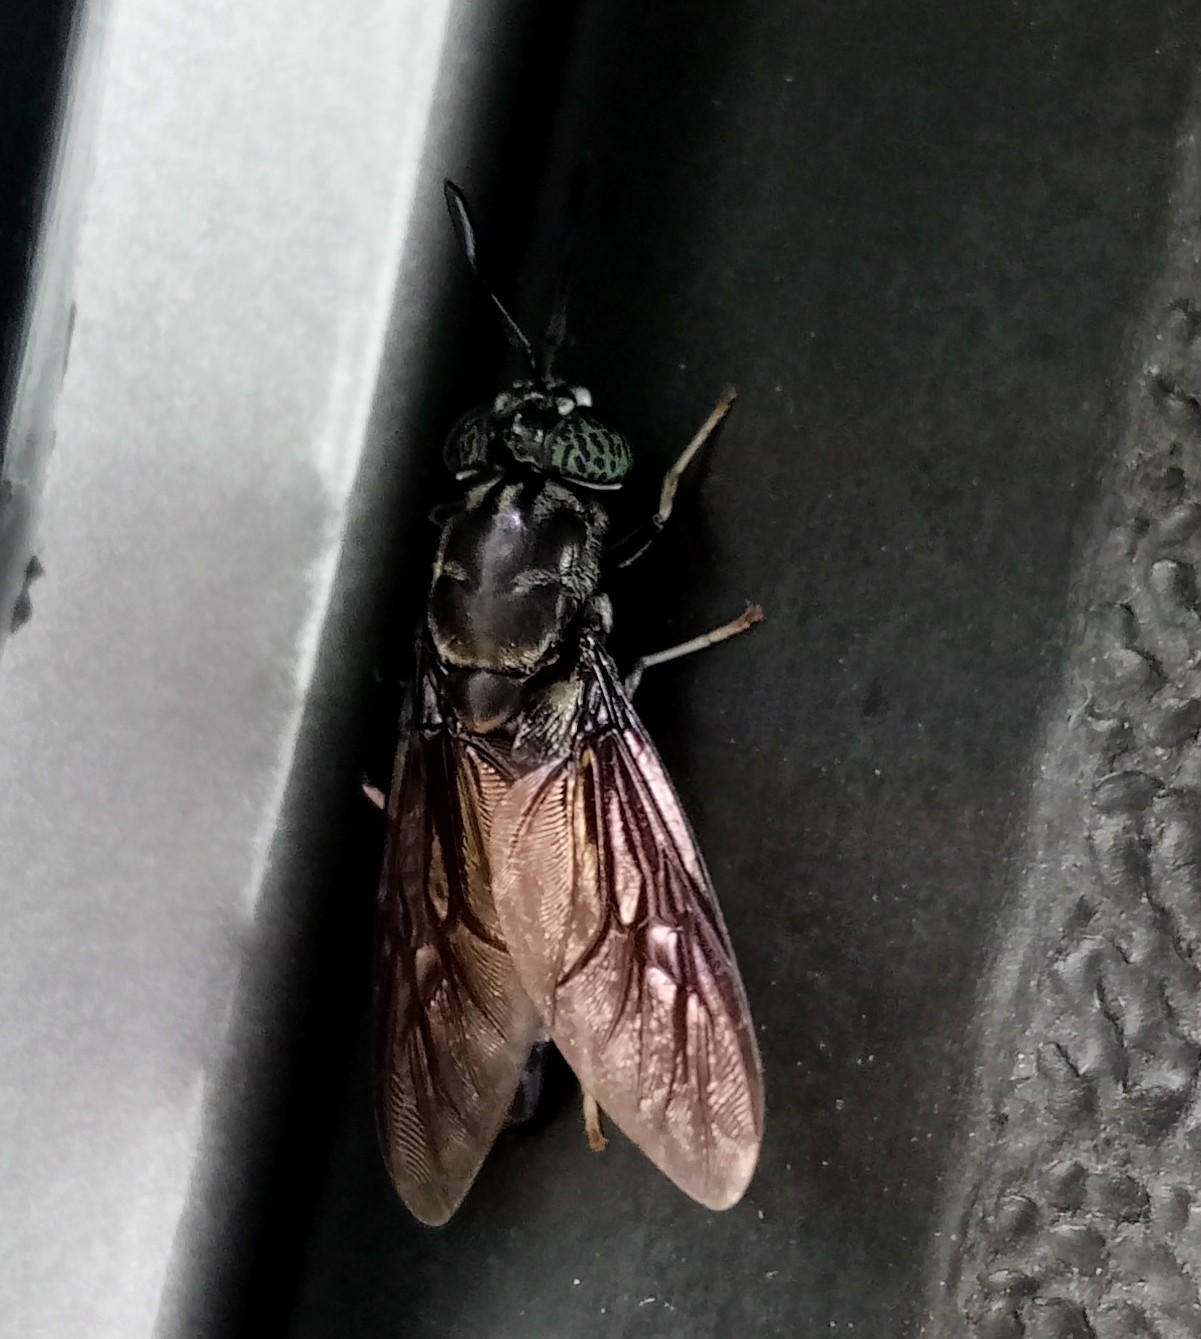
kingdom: Animalia
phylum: Arthropoda
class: Insecta
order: Diptera
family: Stratiomyidae
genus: Hermetia
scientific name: Hermetia illucens
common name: Black soldier fly
